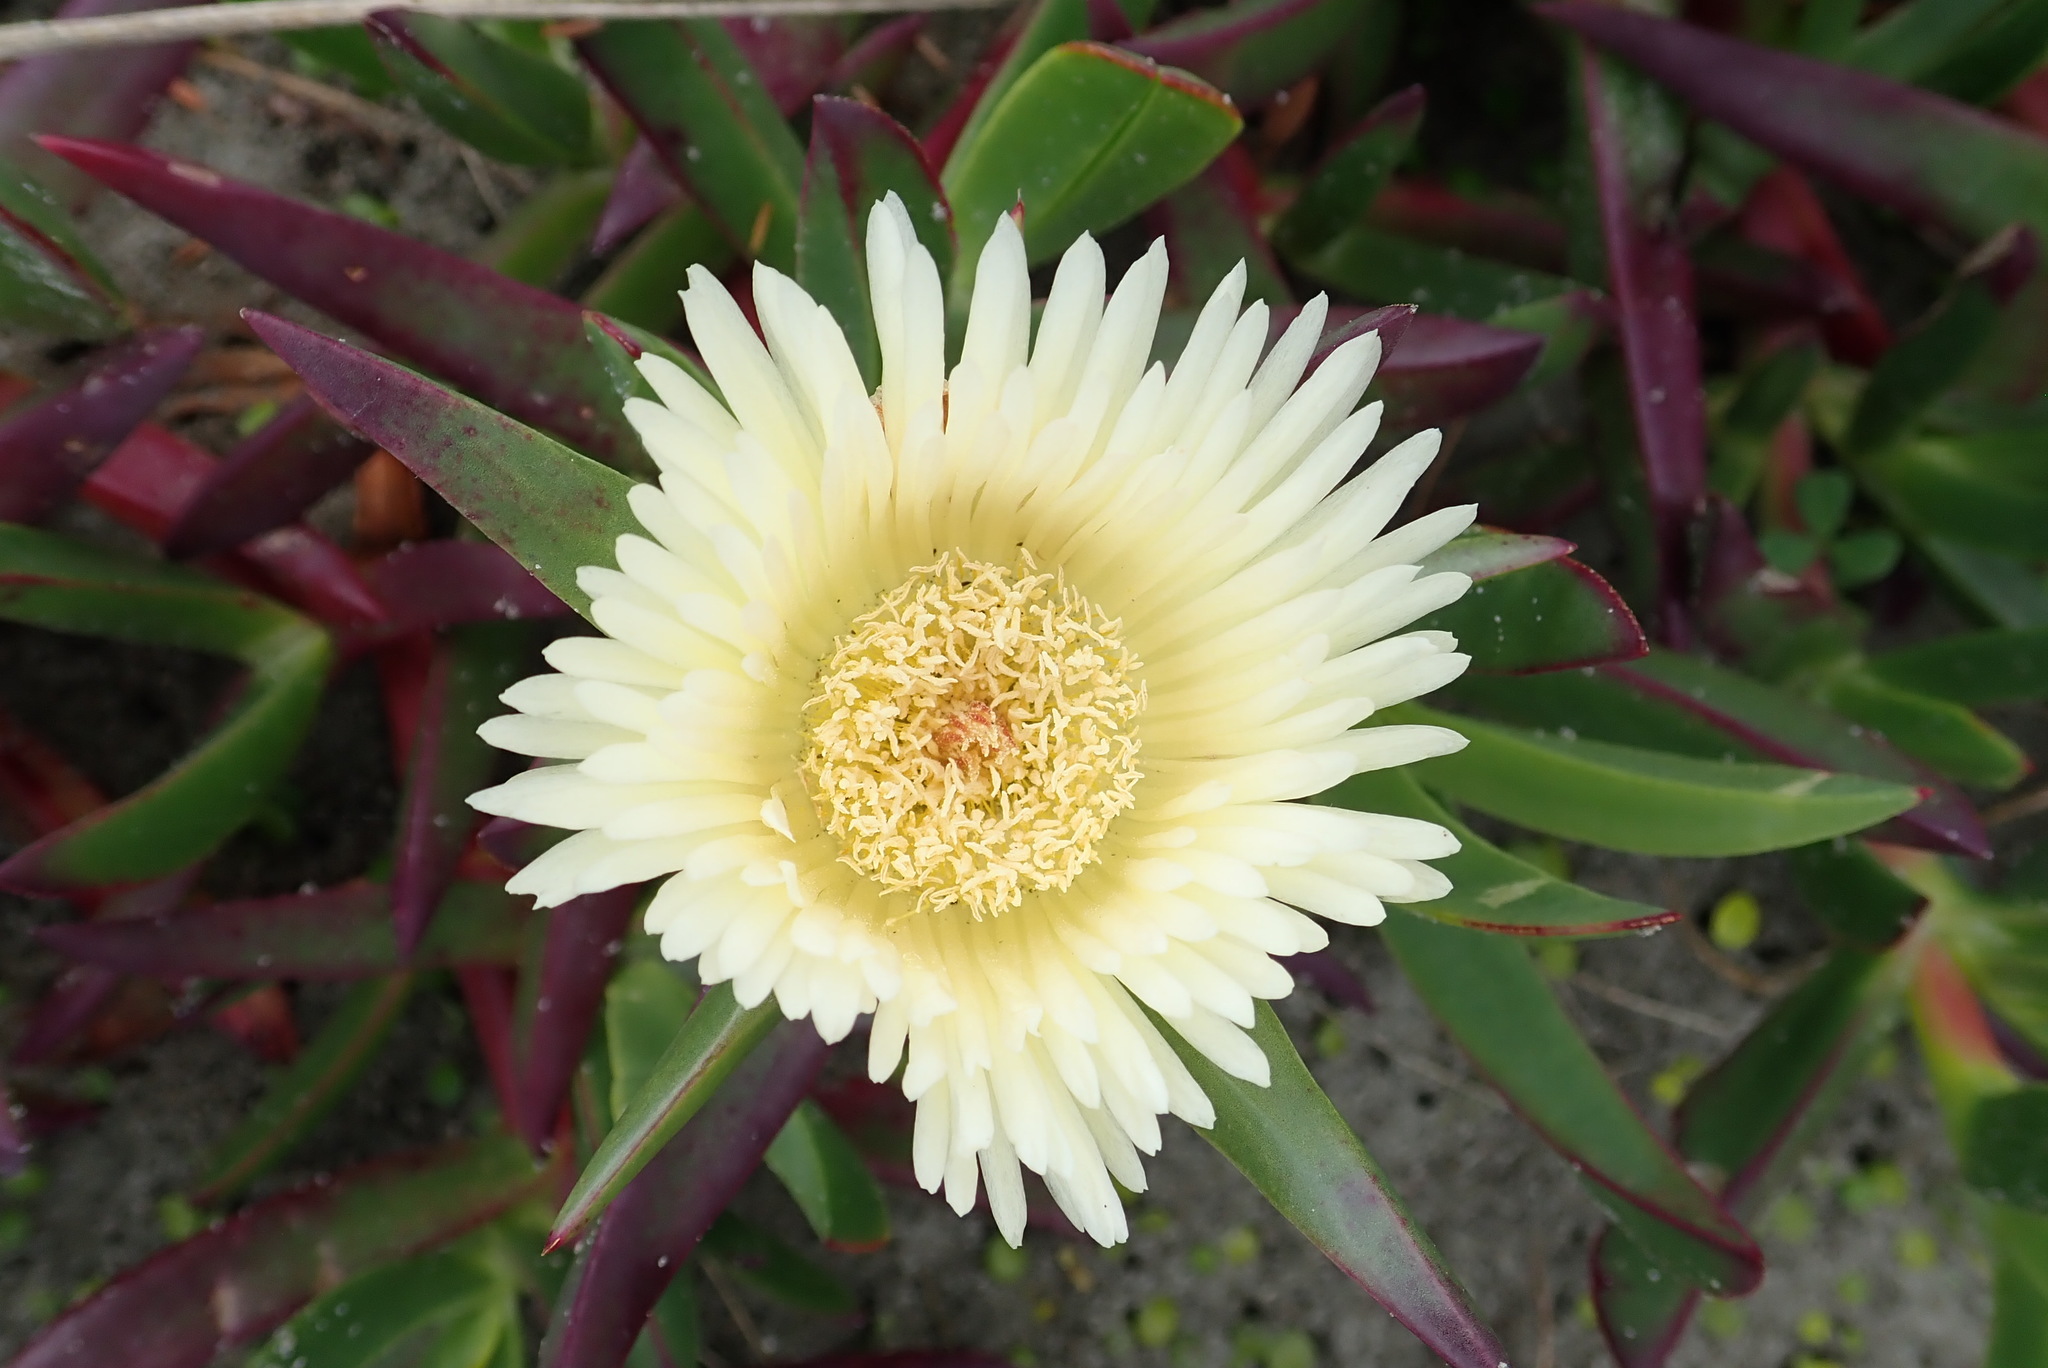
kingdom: Plantae
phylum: Tracheophyta
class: Magnoliopsida
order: Caryophyllales
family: Aizoaceae
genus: Carpobrotus
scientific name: Carpobrotus edulis
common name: Hottentot-fig
